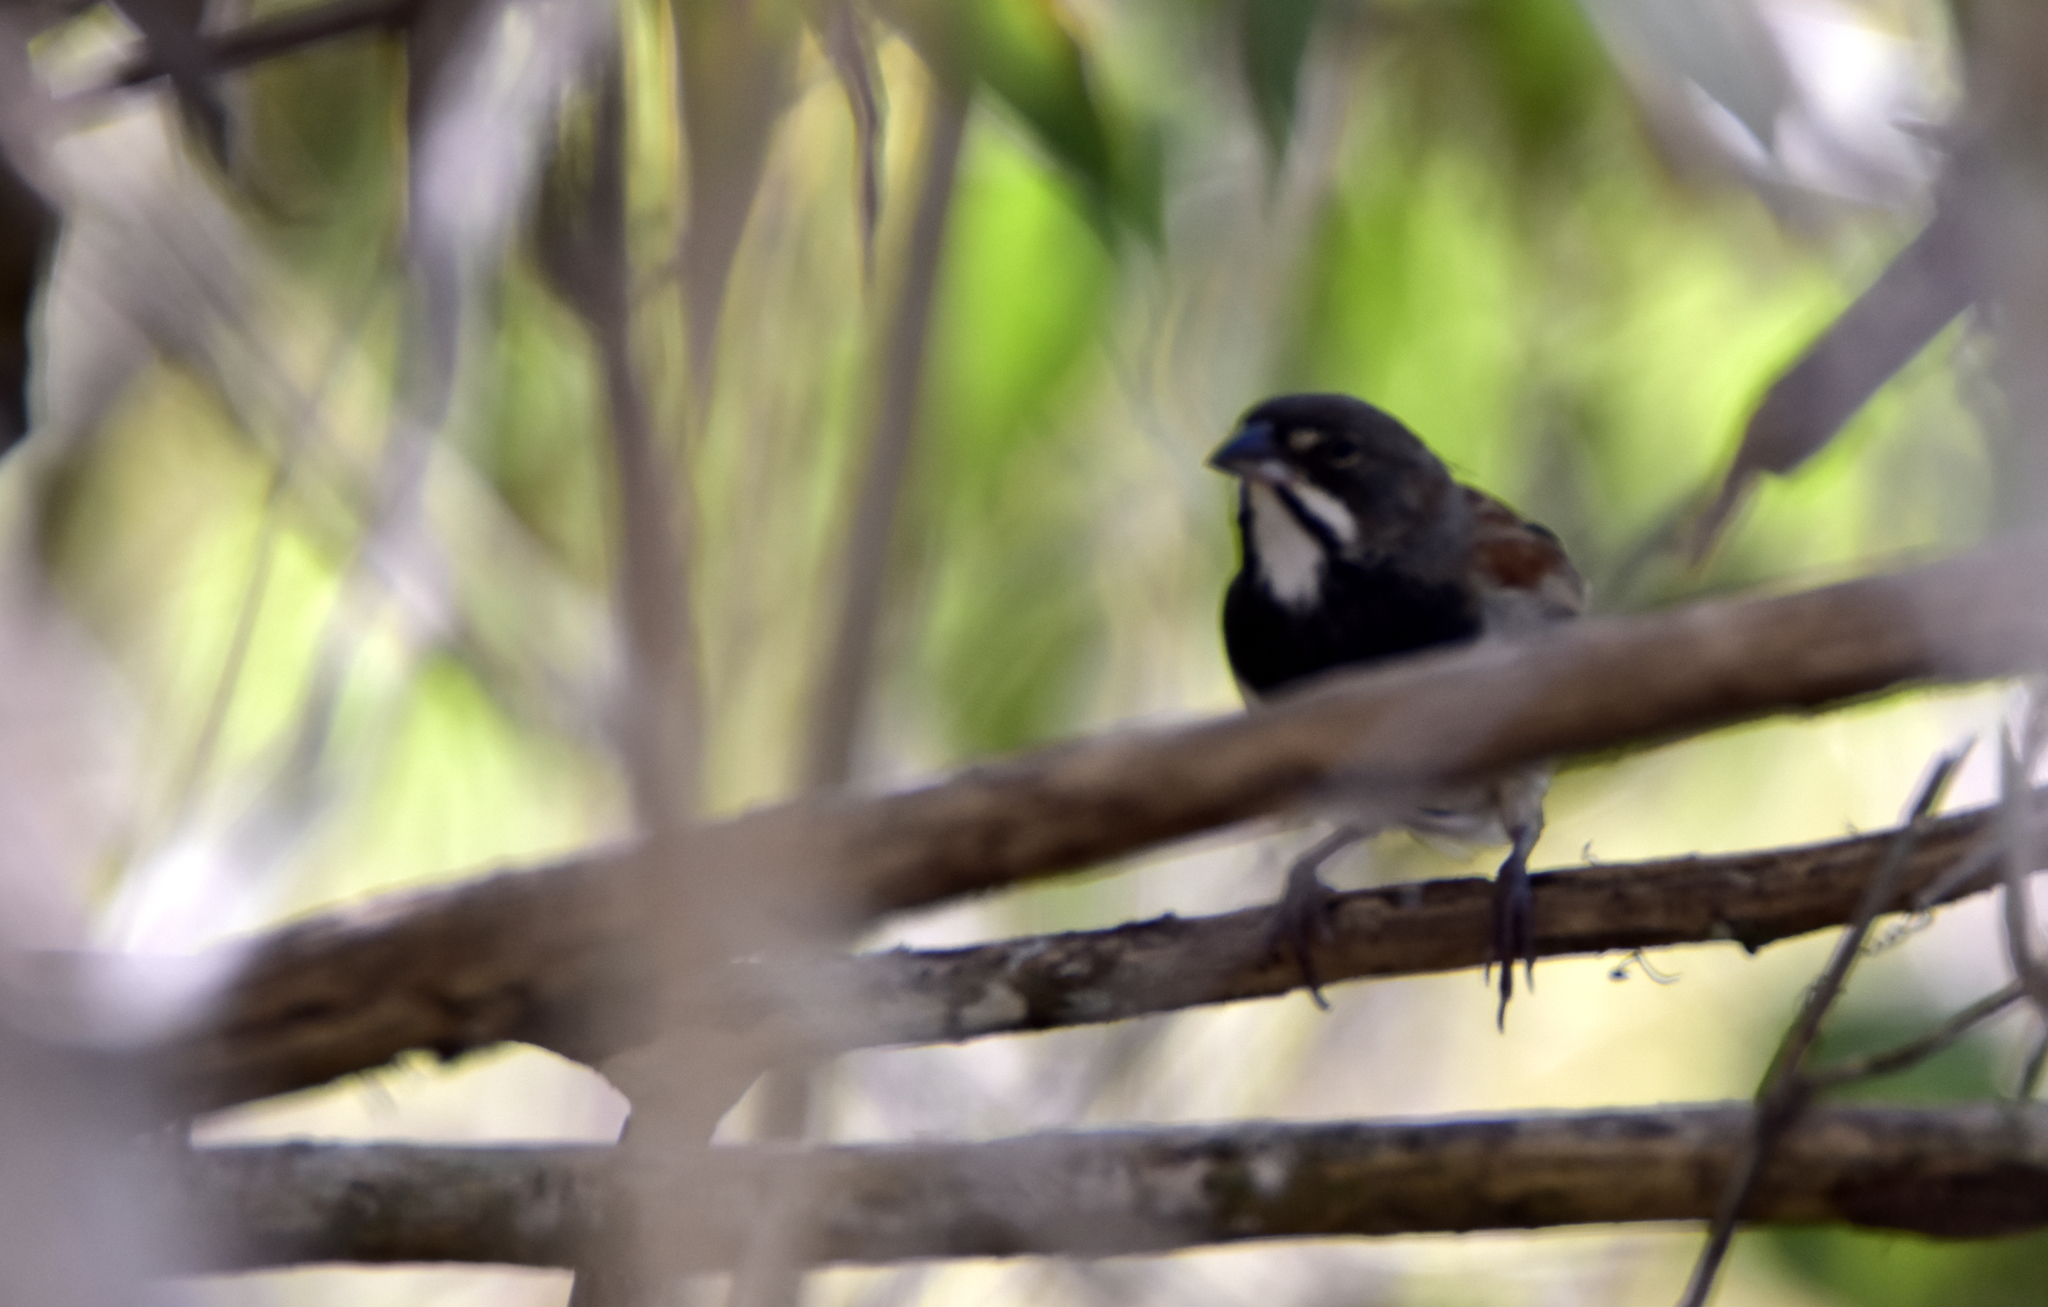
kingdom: Animalia
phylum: Chordata
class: Aves
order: Passeriformes
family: Passerellidae
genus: Peucaea
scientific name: Peucaea humeralis
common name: Black-chested sparrow
